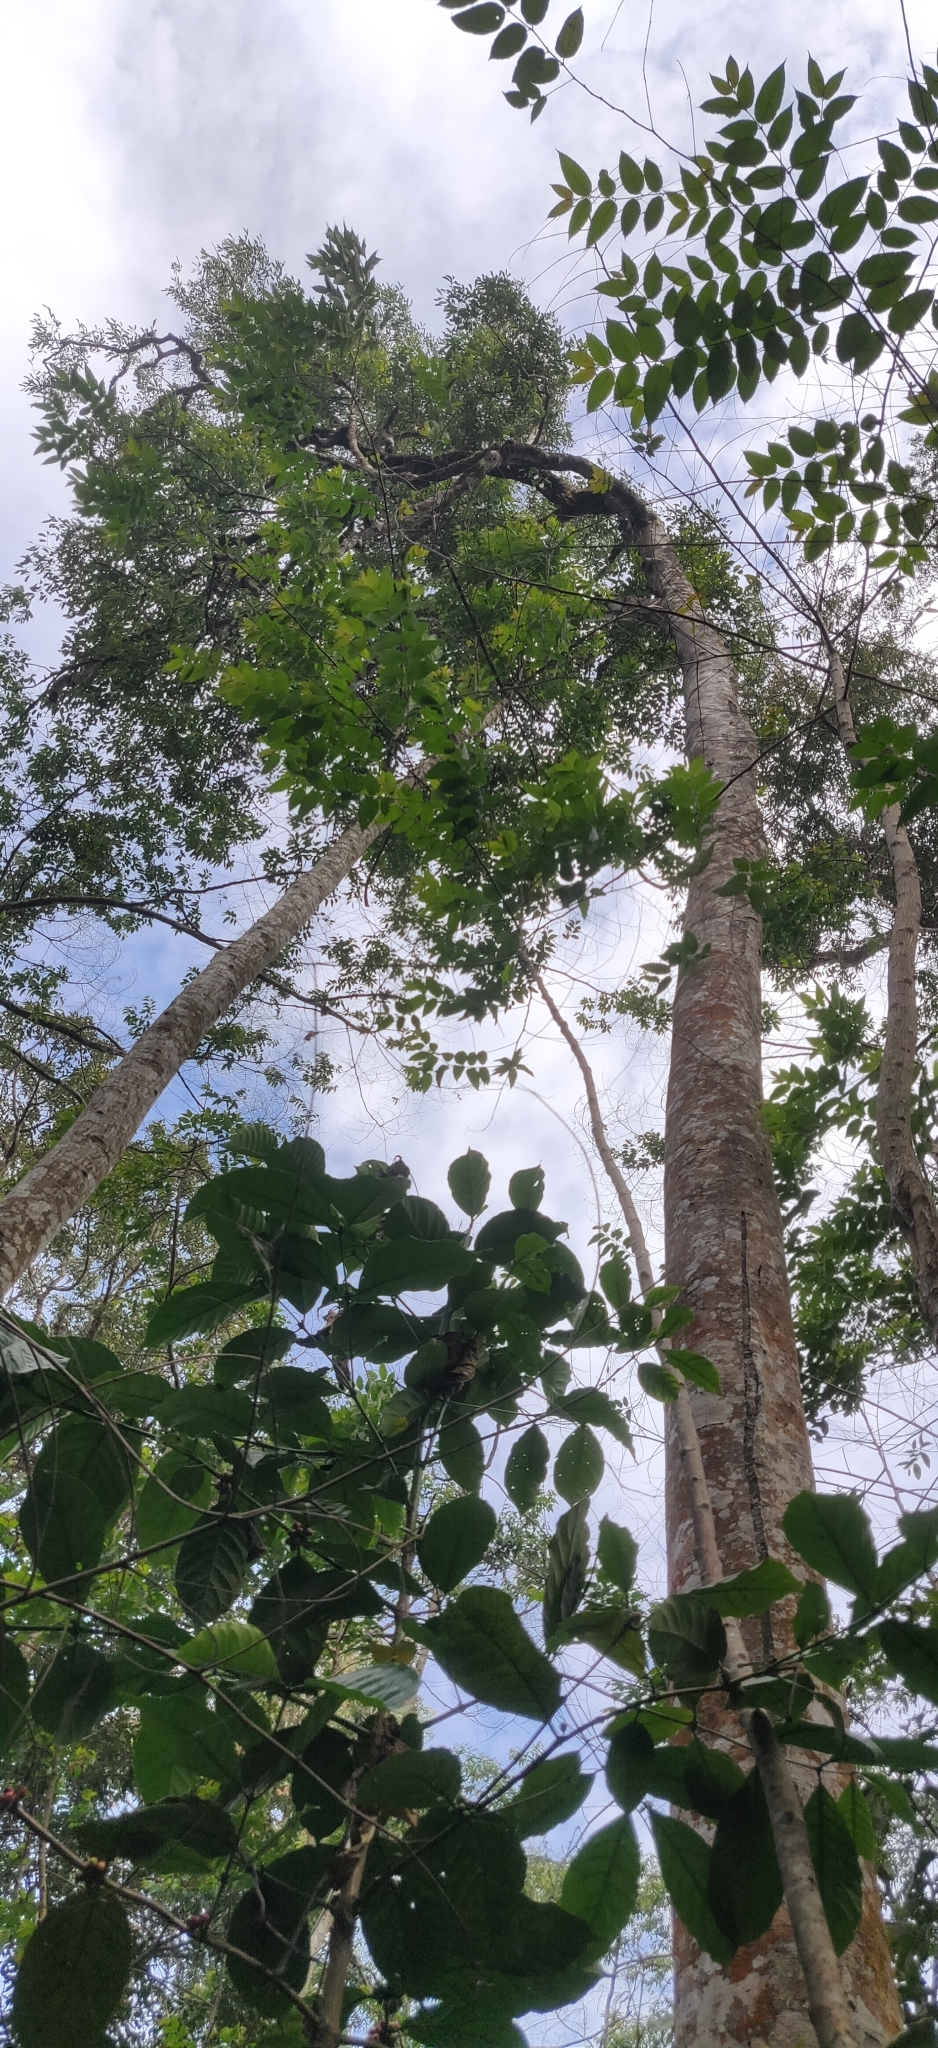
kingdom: Plantae
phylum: Tracheophyta
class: Magnoliopsida
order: Ericales
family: Ebenaceae
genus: Diospyros
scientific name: Diospyros sylvatica
